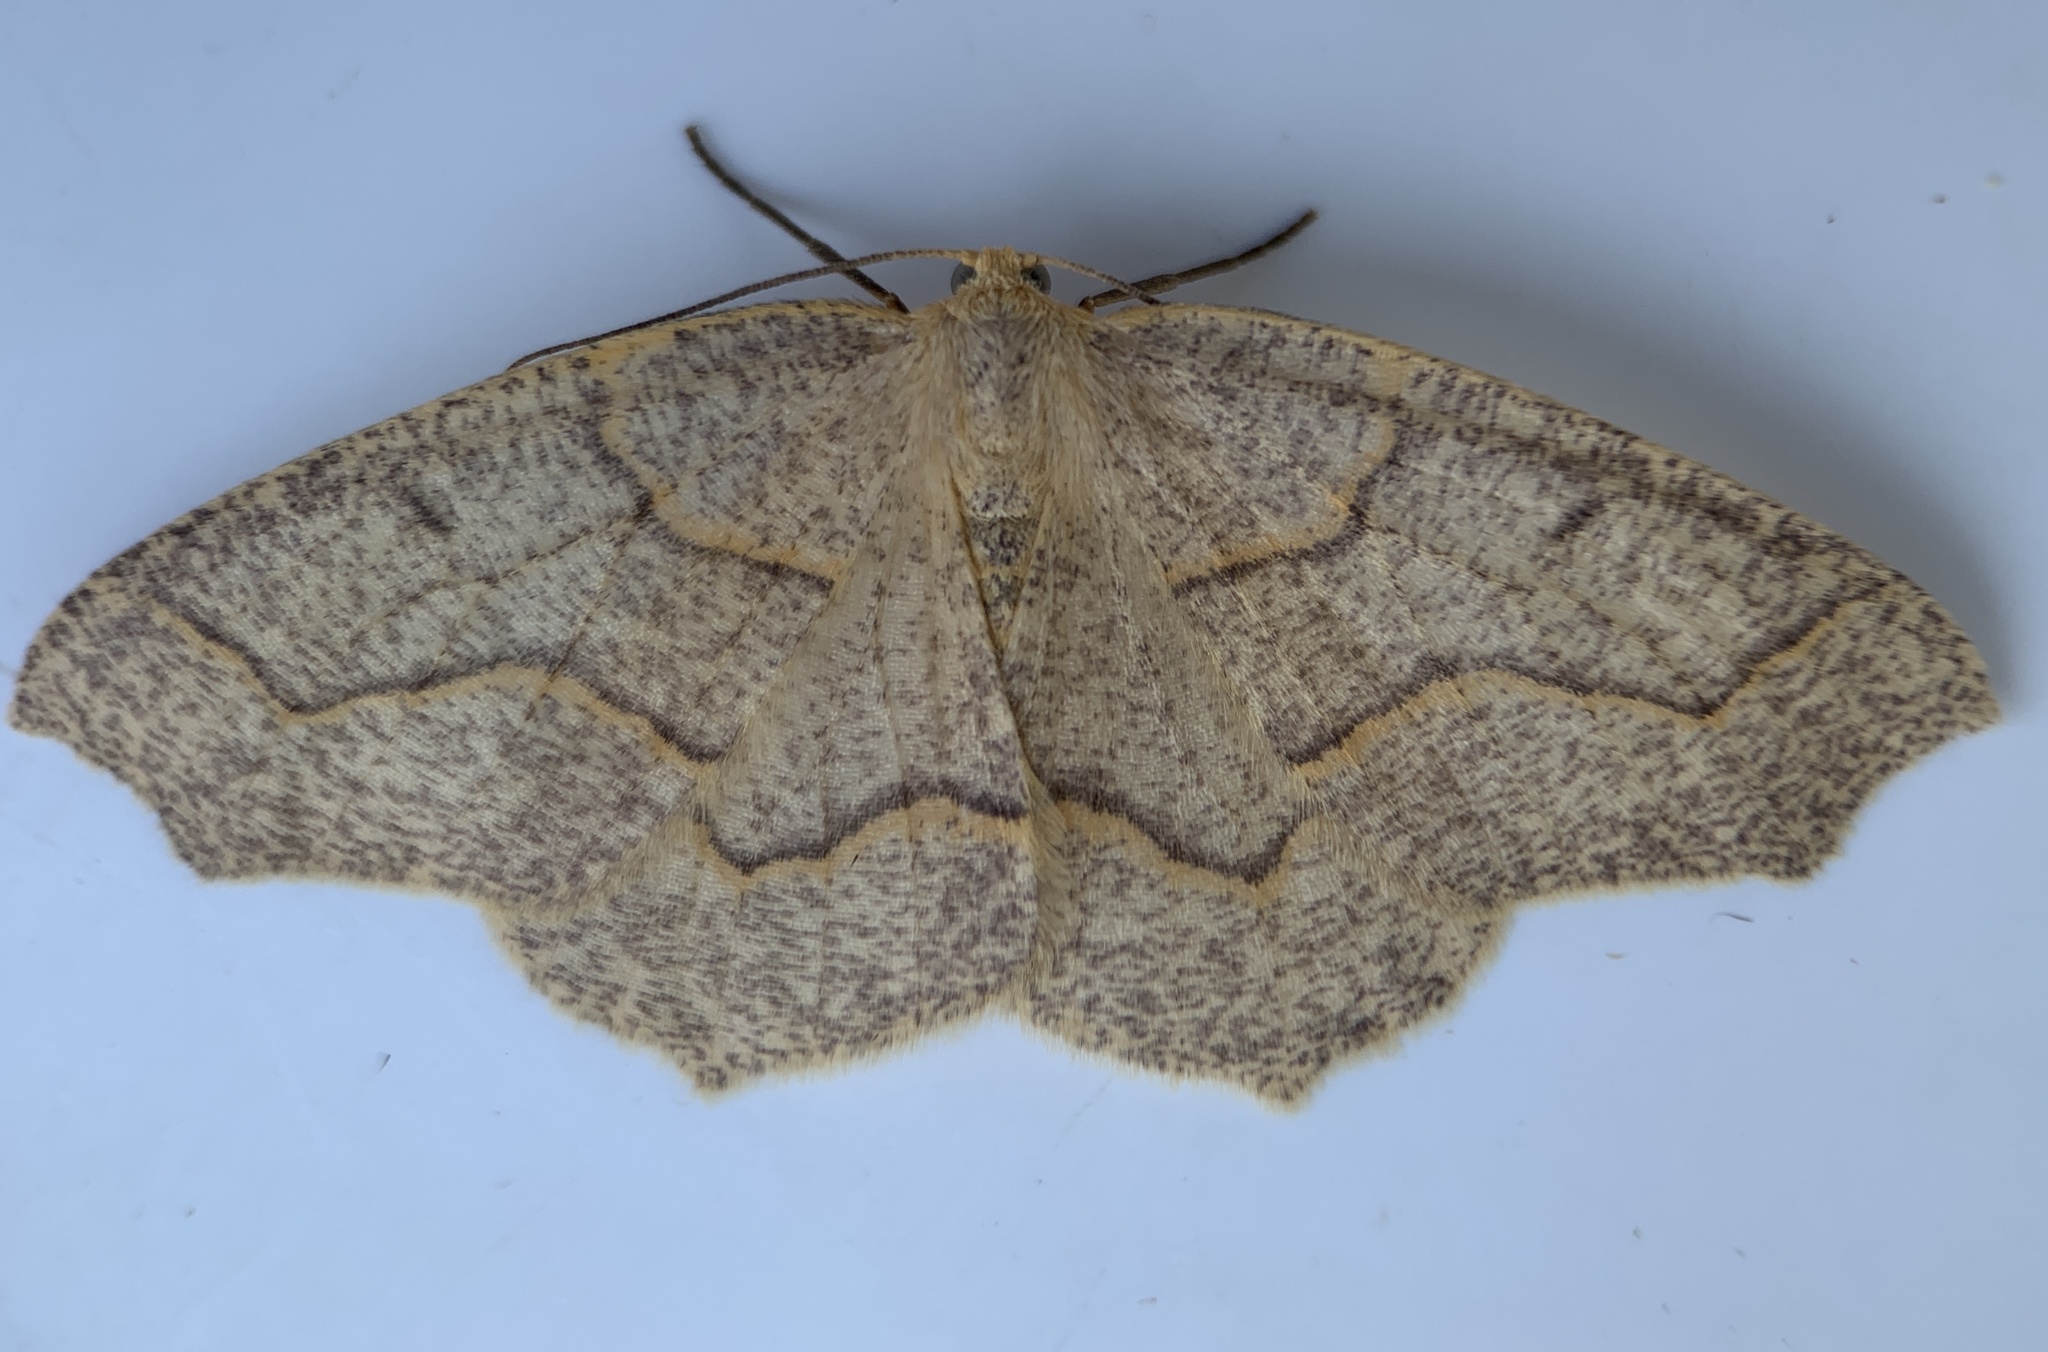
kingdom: Animalia
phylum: Arthropoda
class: Insecta
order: Lepidoptera
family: Geometridae
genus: Lambdina
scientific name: Lambdina fiscellaria
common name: Hemlock looper
